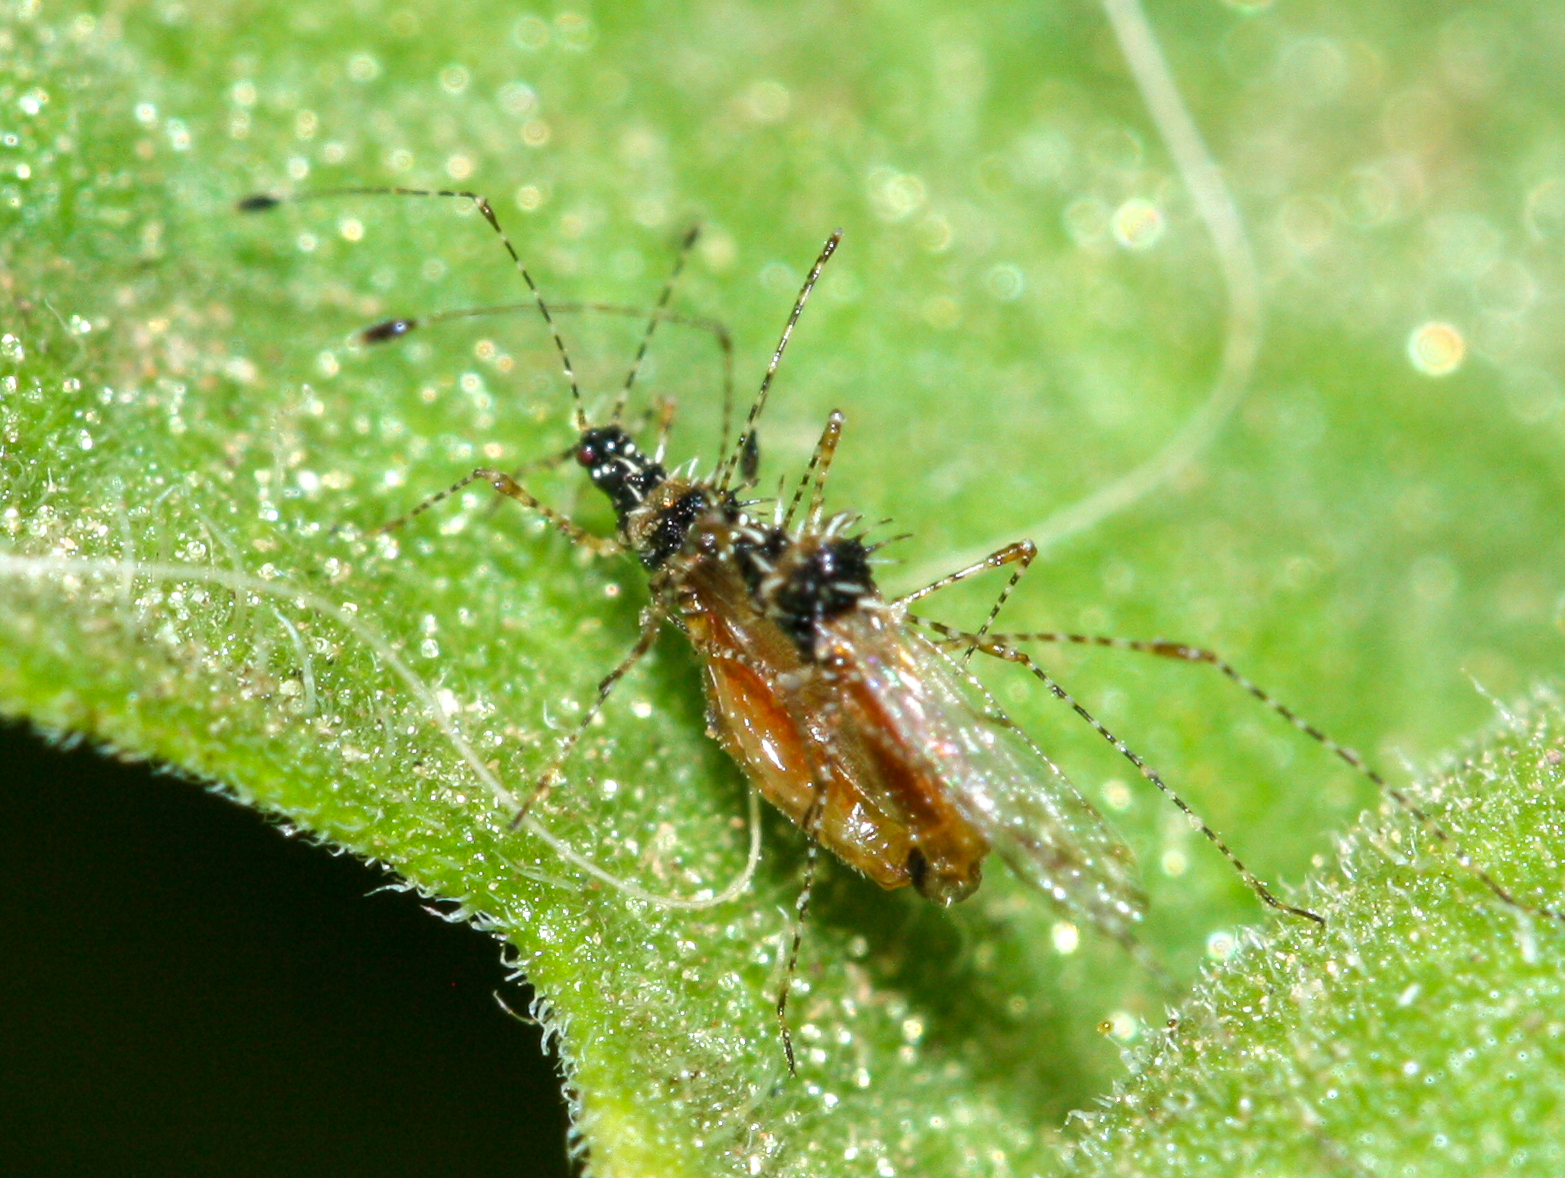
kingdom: Animalia
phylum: Arthropoda
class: Insecta
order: Hemiptera
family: Berytidae
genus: Pronotacantha
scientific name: Pronotacantha annulata
